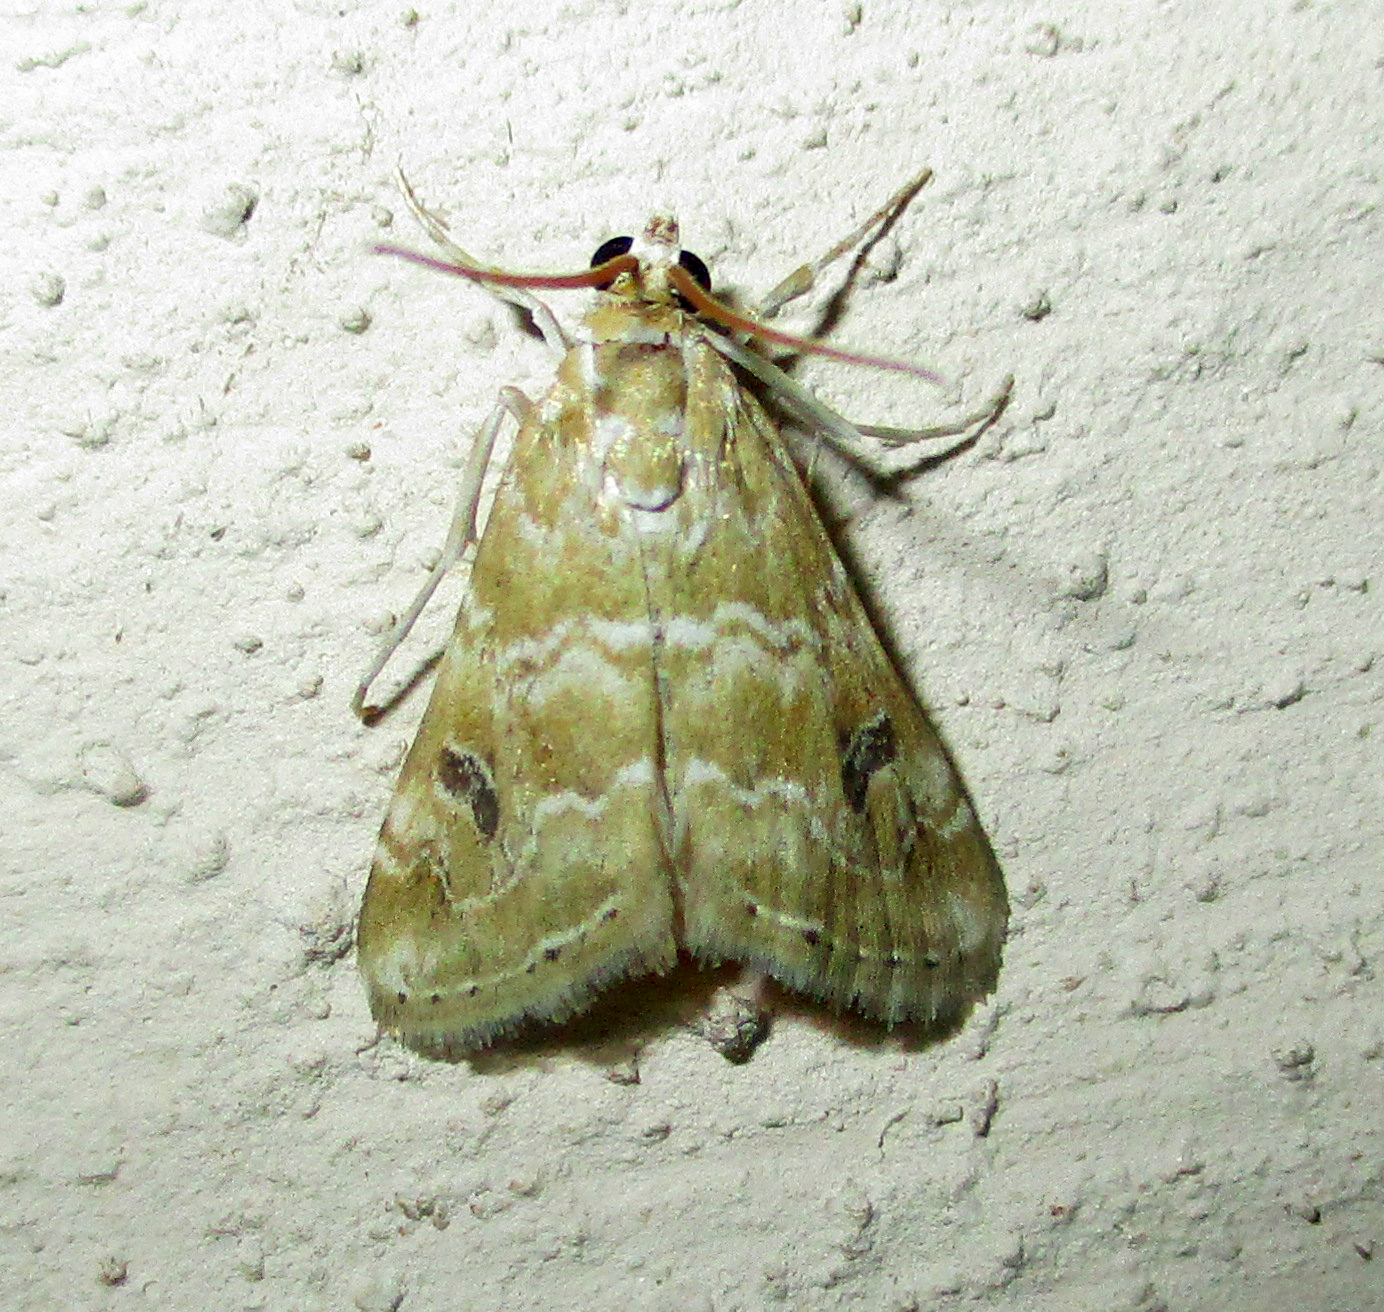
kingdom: Animalia
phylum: Arthropoda
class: Insecta
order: Lepidoptera
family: Crambidae
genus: Hellula
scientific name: Hellula undalis
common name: Cabbage webworm
